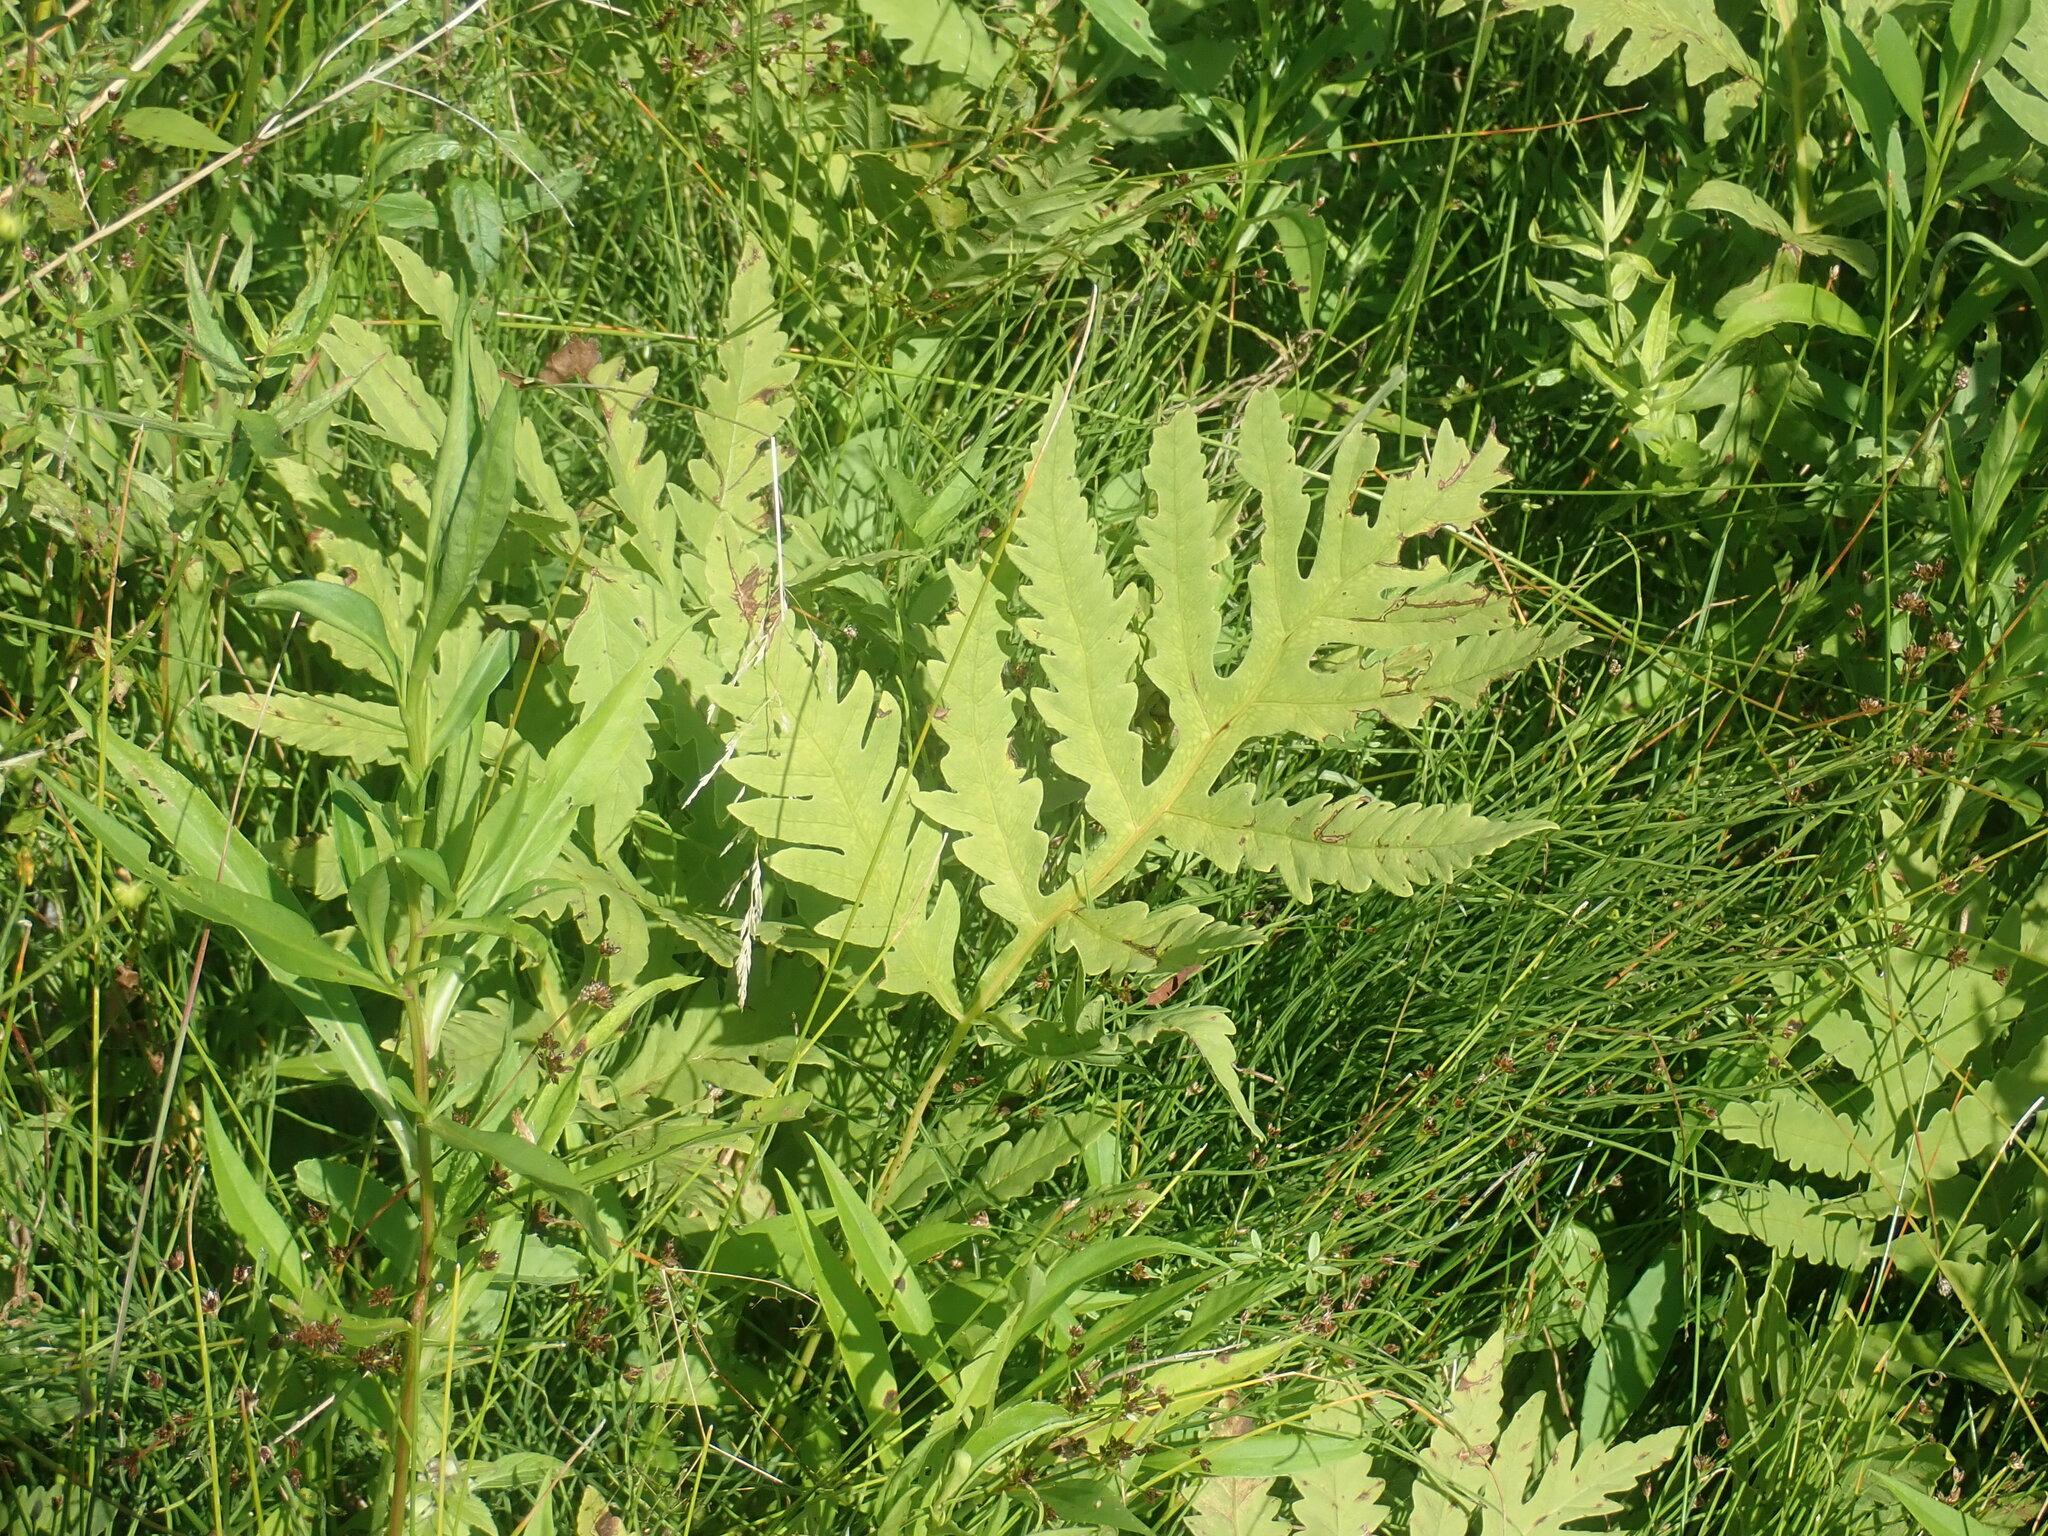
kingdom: Plantae
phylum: Tracheophyta
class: Polypodiopsida
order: Polypodiales
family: Onocleaceae
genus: Onoclea
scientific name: Onoclea sensibilis
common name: Sensitive fern
